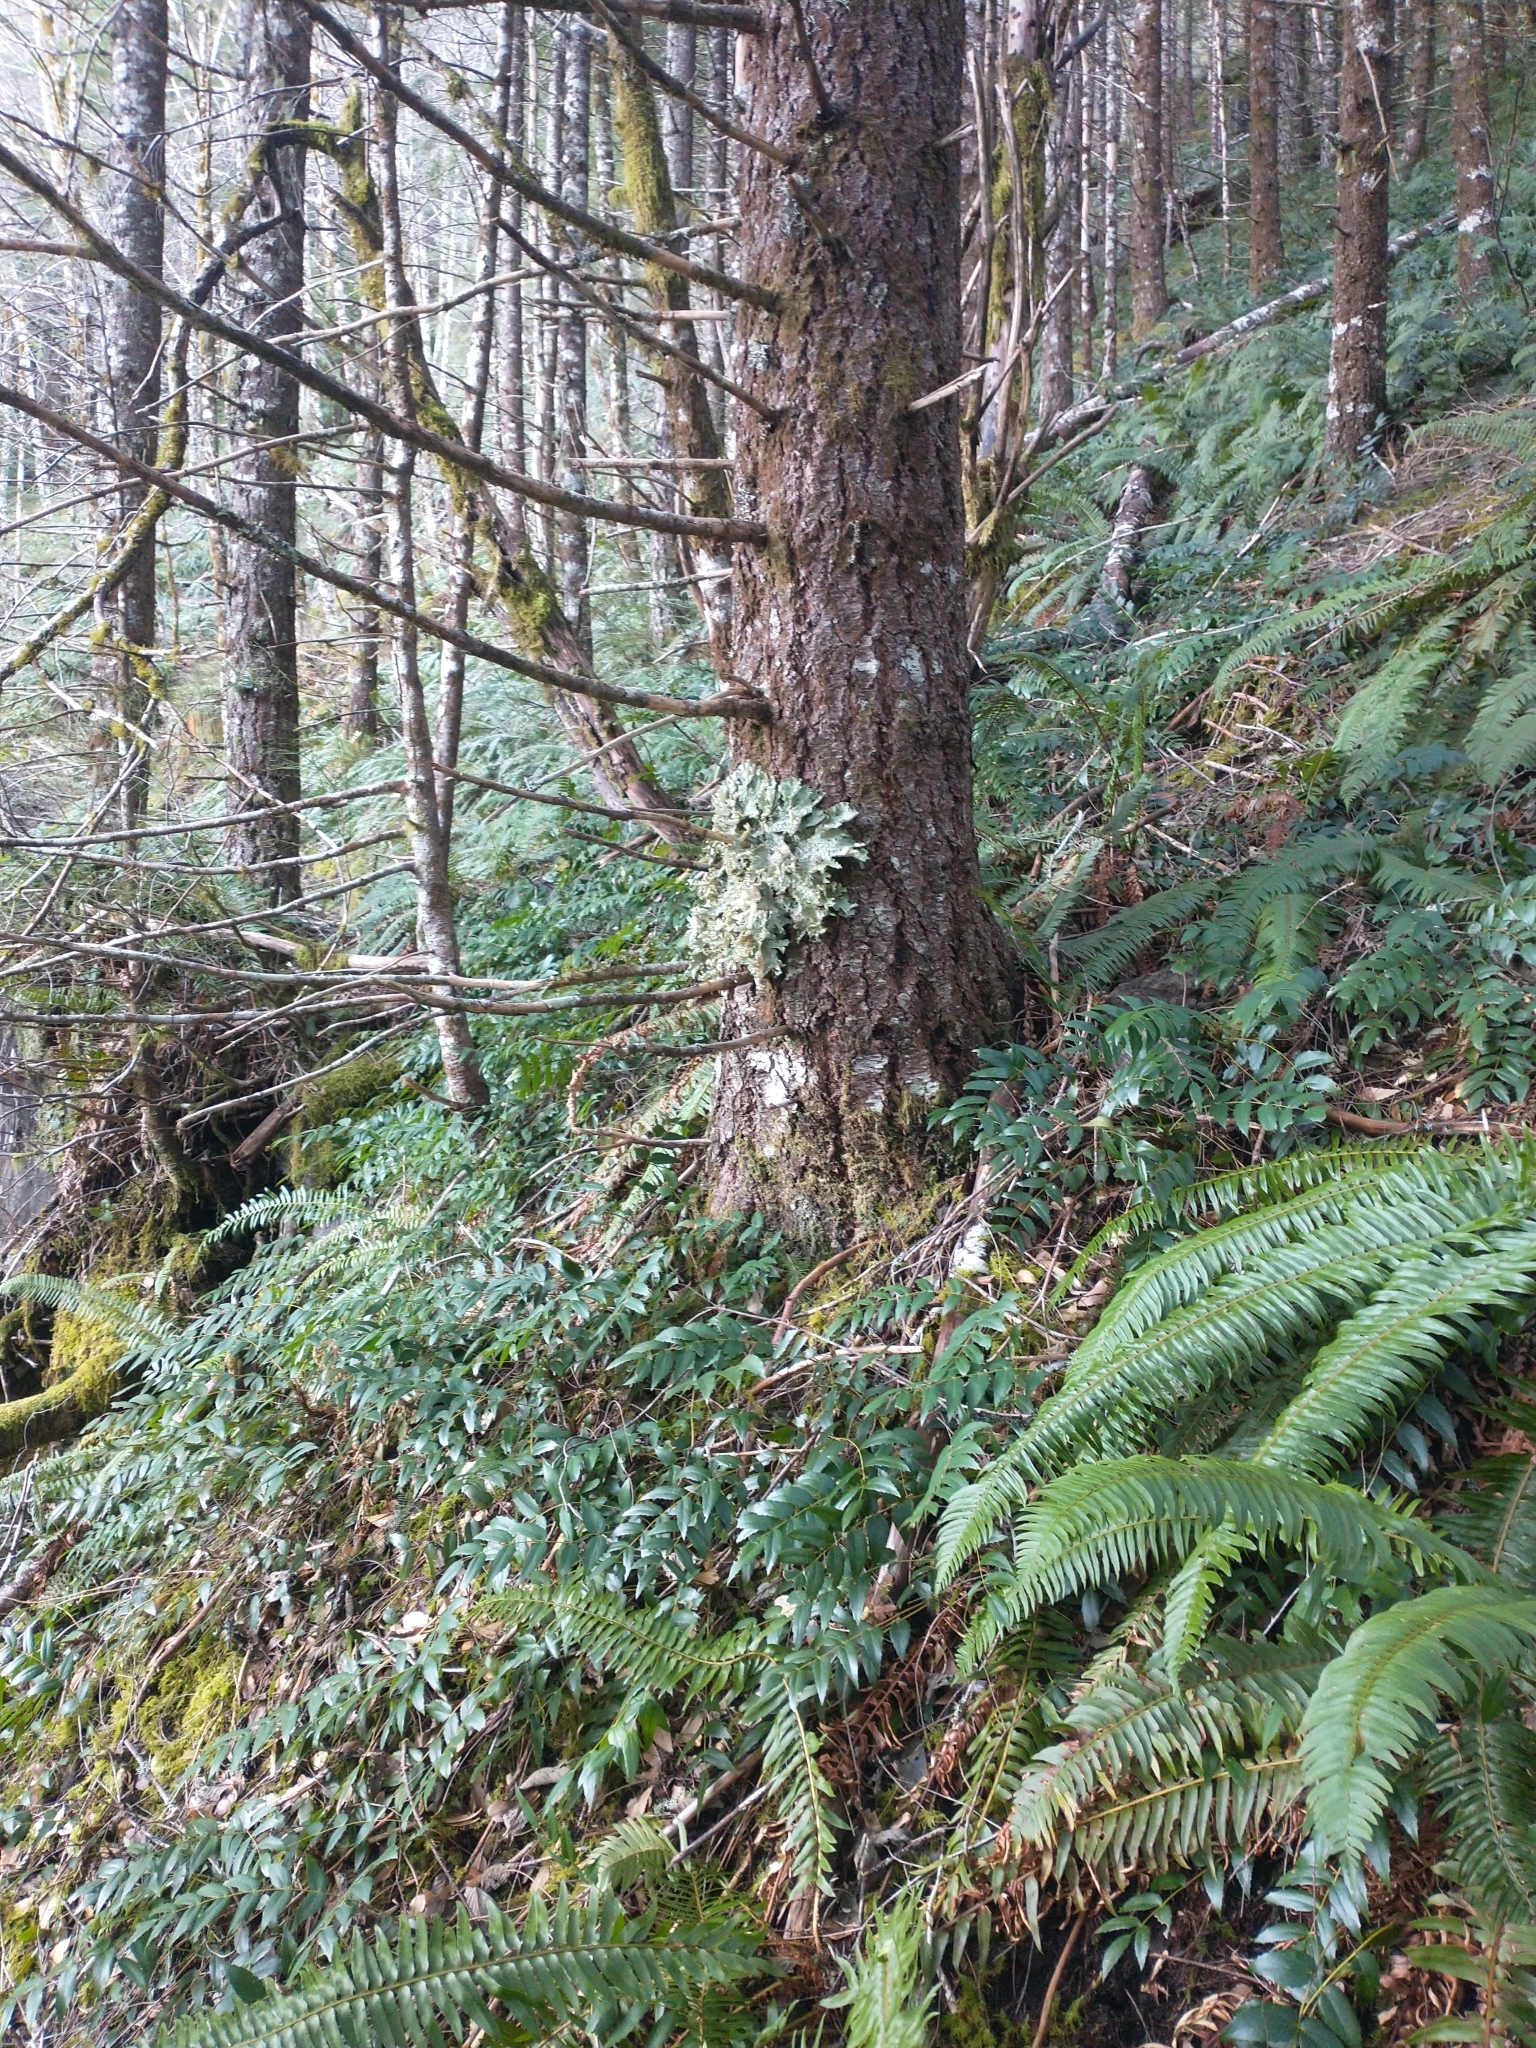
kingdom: Plantae
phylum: Tracheophyta
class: Polypodiopsida
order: Polypodiales
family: Dryopteridaceae
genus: Polystichum
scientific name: Polystichum munitum
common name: Western sword-fern
